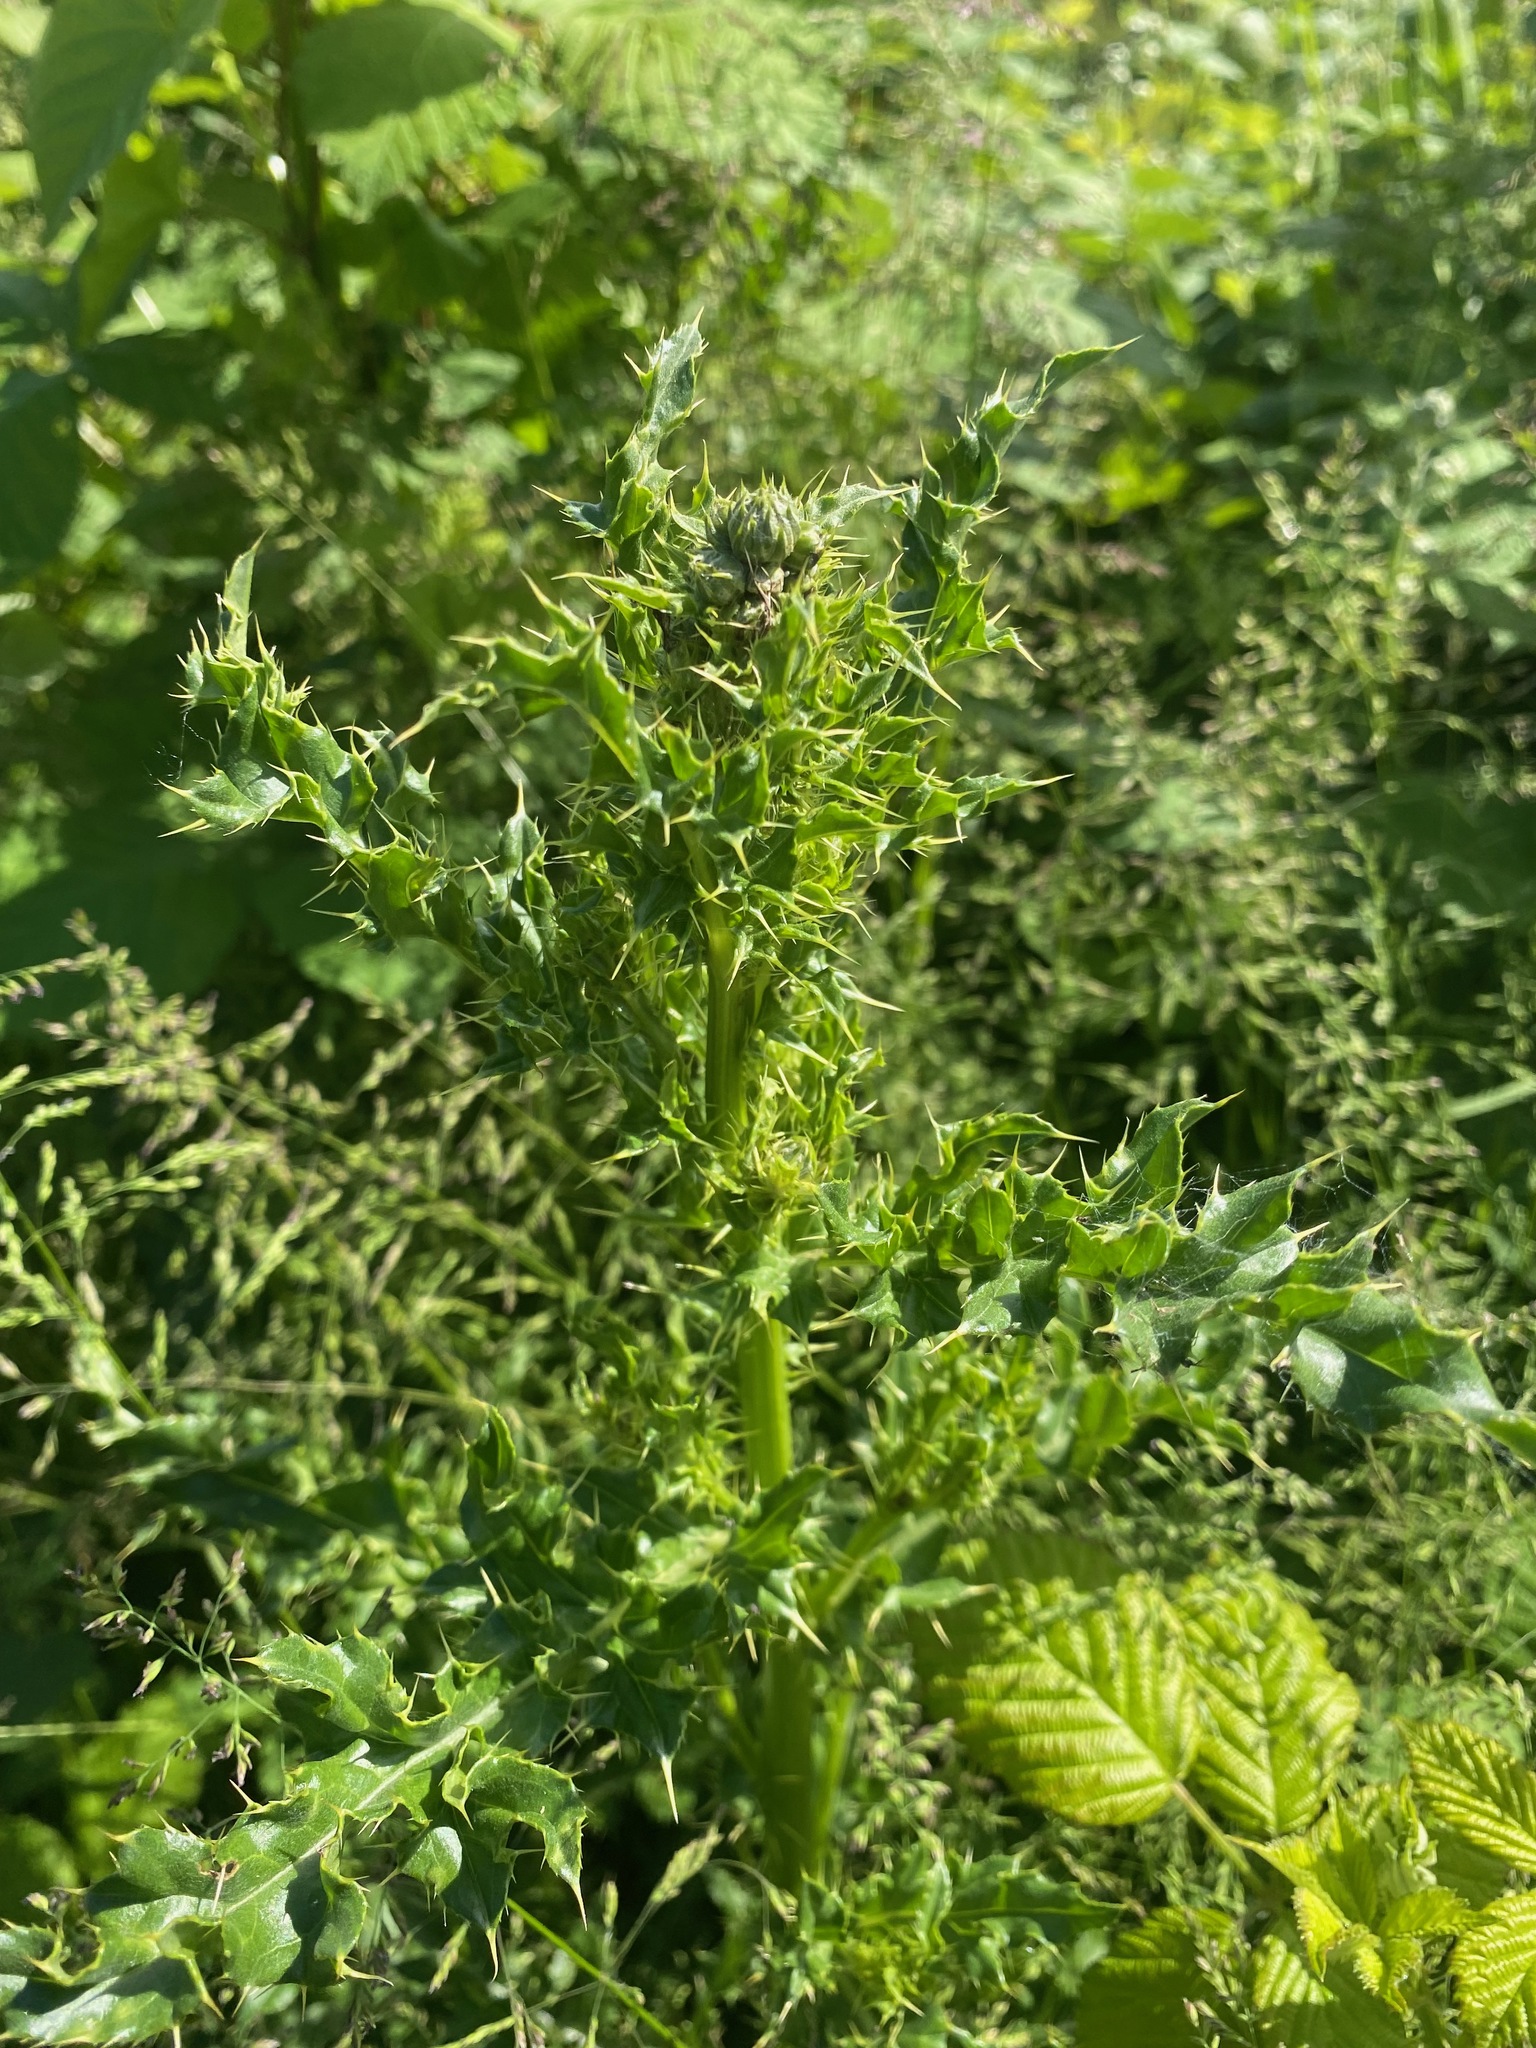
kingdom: Plantae
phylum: Tracheophyta
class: Magnoliopsida
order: Asterales
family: Asteraceae
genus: Cirsium
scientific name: Cirsium arvense
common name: Creeping thistle
